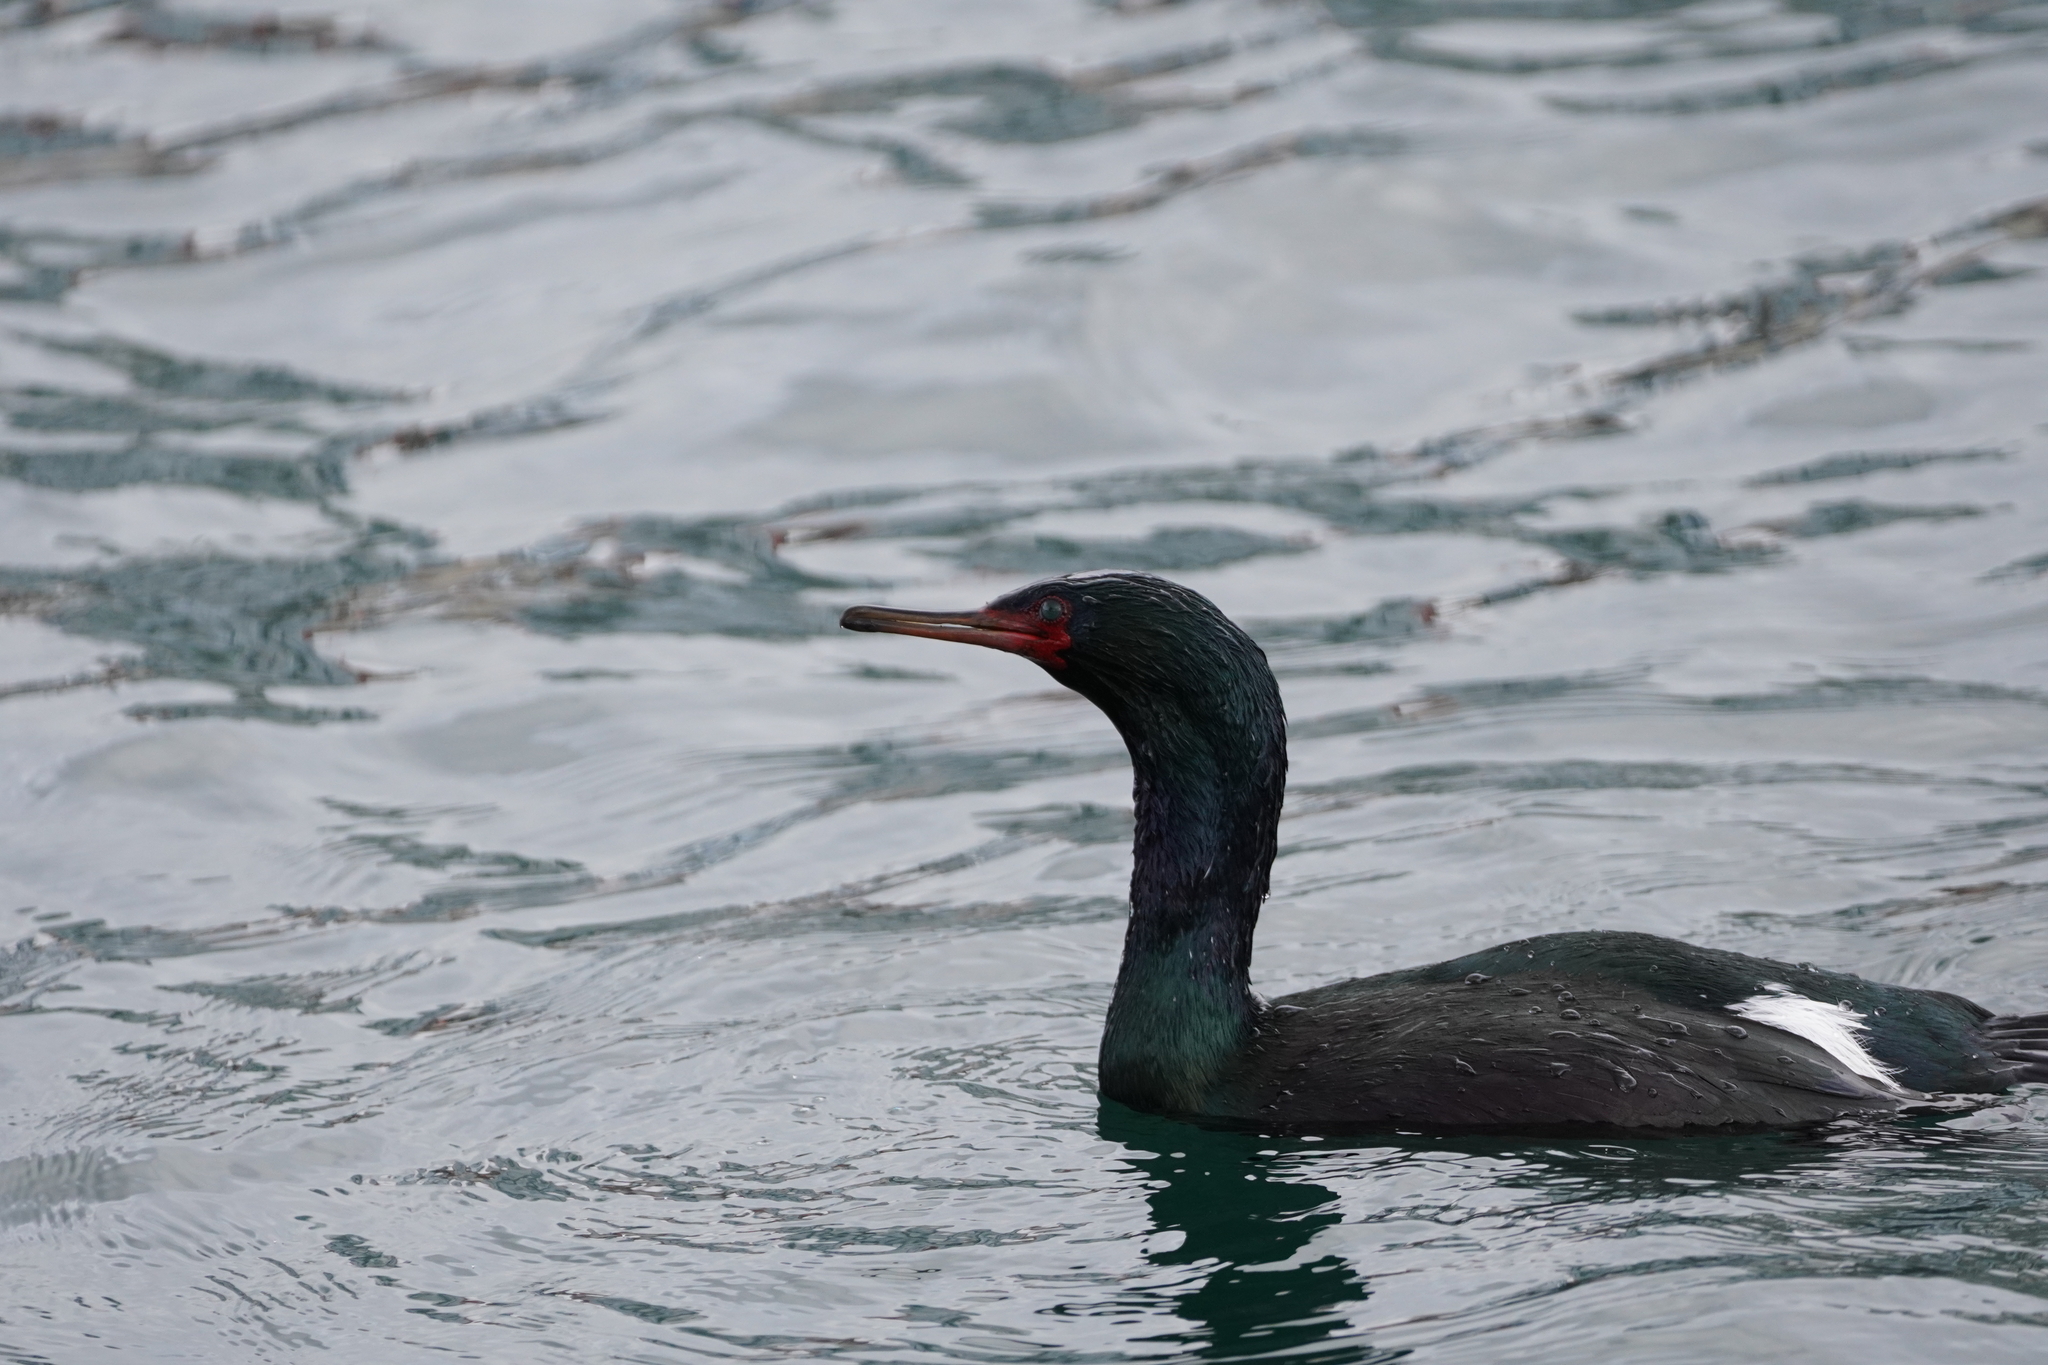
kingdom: Animalia
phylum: Chordata
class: Aves
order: Suliformes
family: Phalacrocoracidae
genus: Phalacrocorax
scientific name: Phalacrocorax pelagicus
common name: Pelagic cormorant
